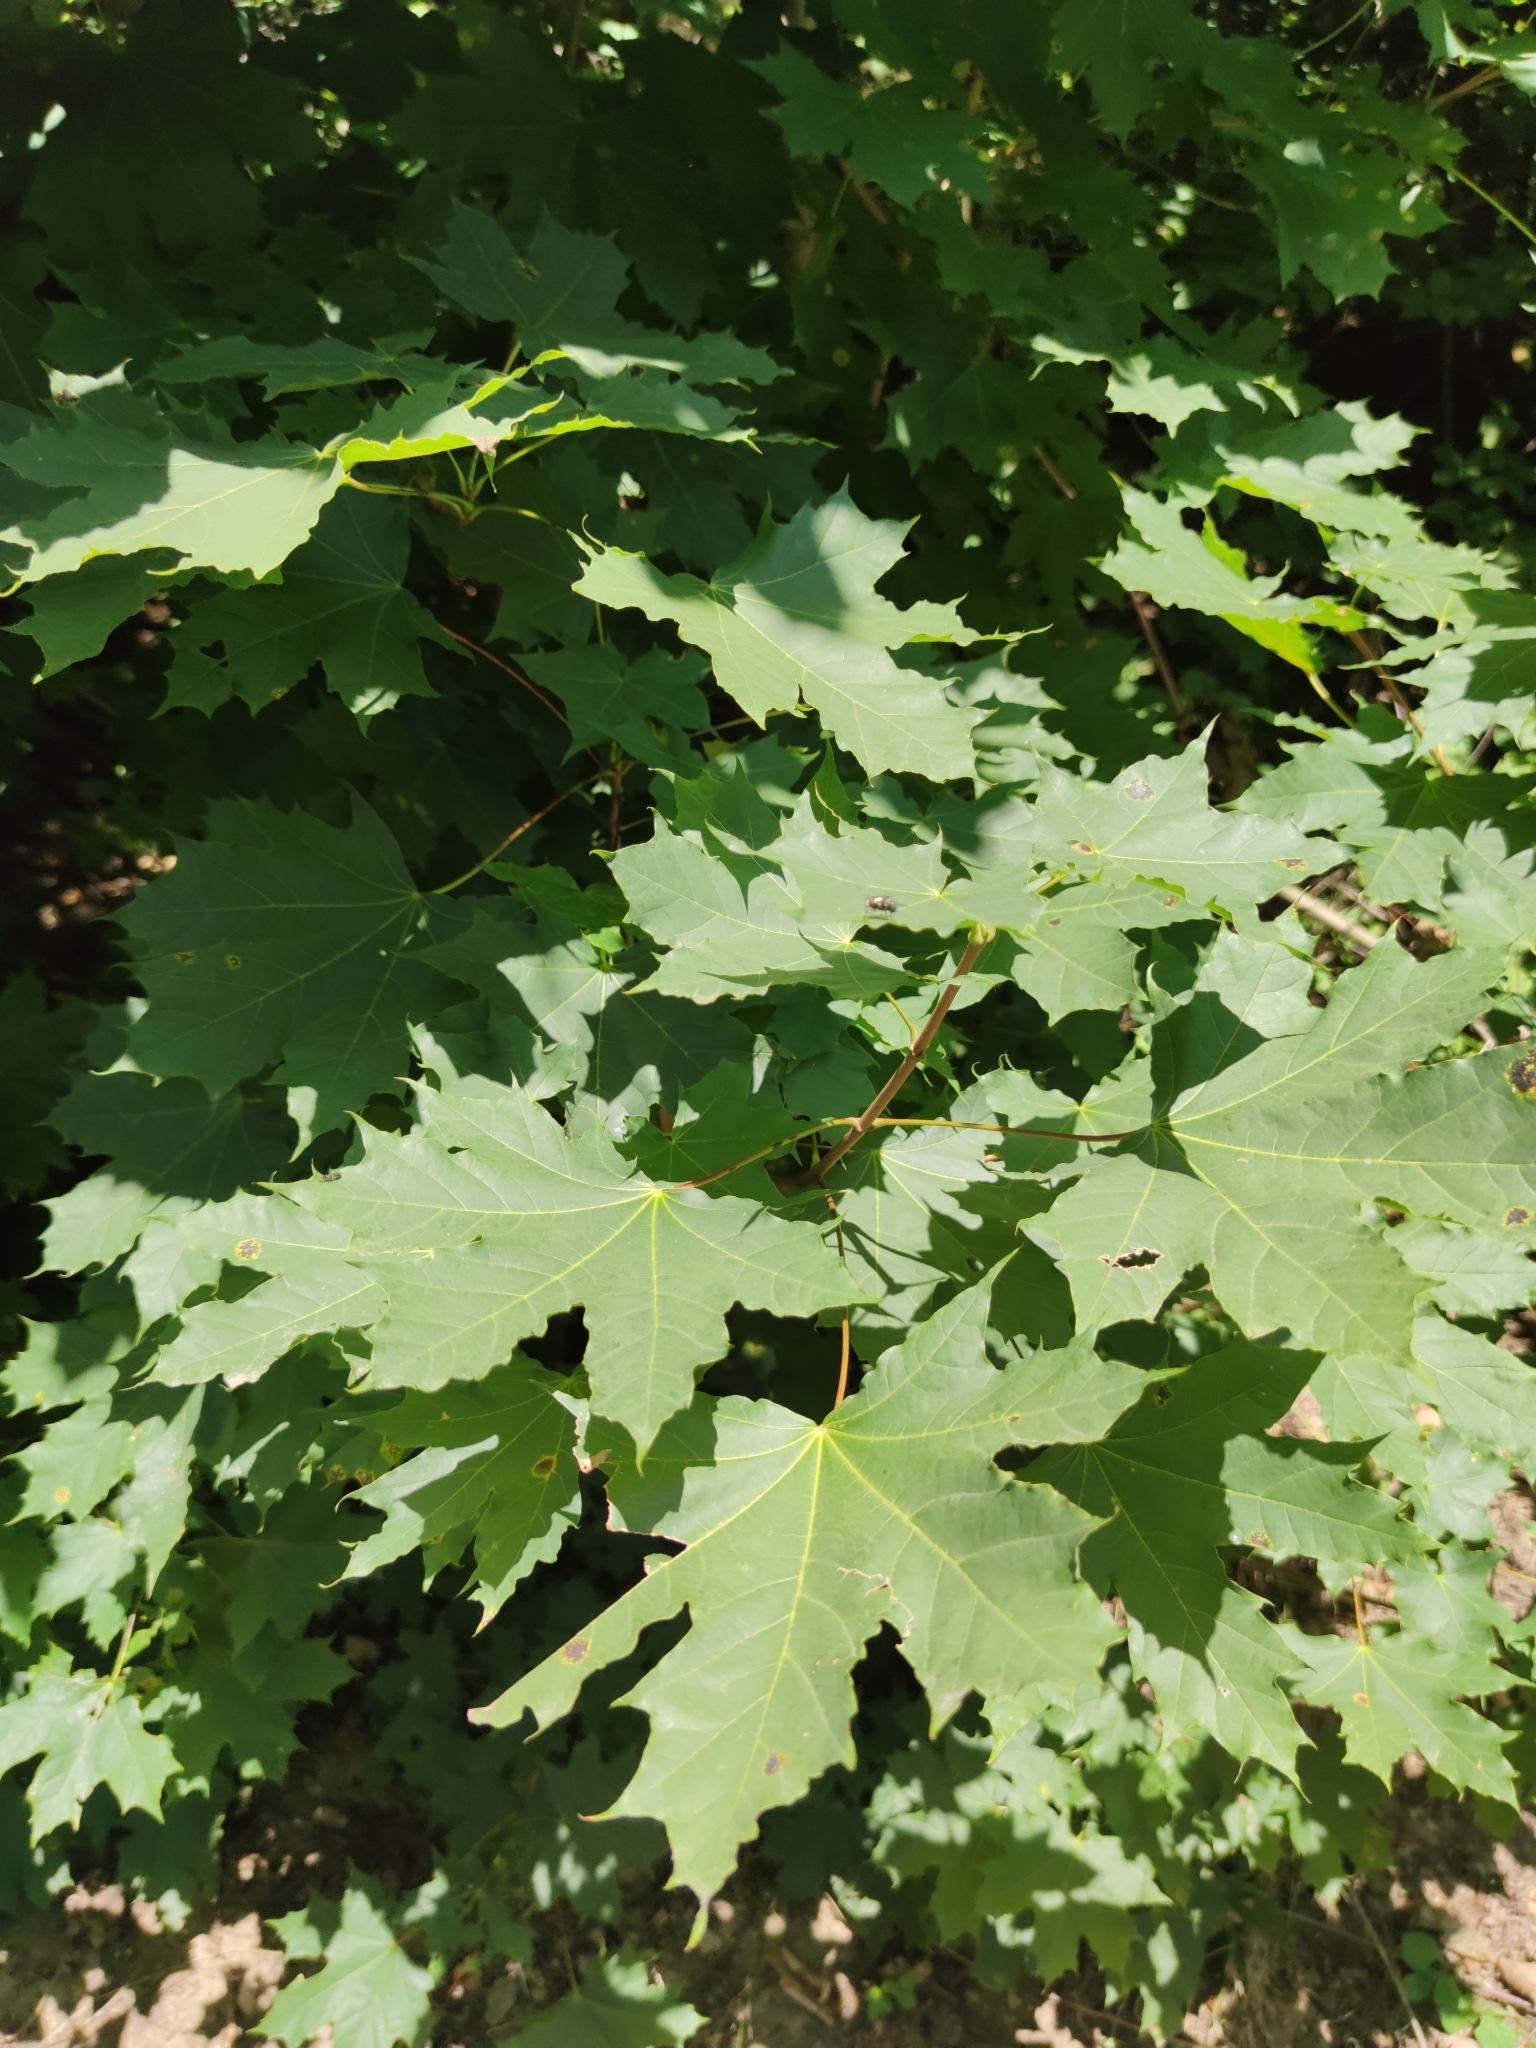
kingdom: Plantae
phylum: Tracheophyta
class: Magnoliopsida
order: Sapindales
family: Sapindaceae
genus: Acer
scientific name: Acer platanoides
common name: Norway maple
